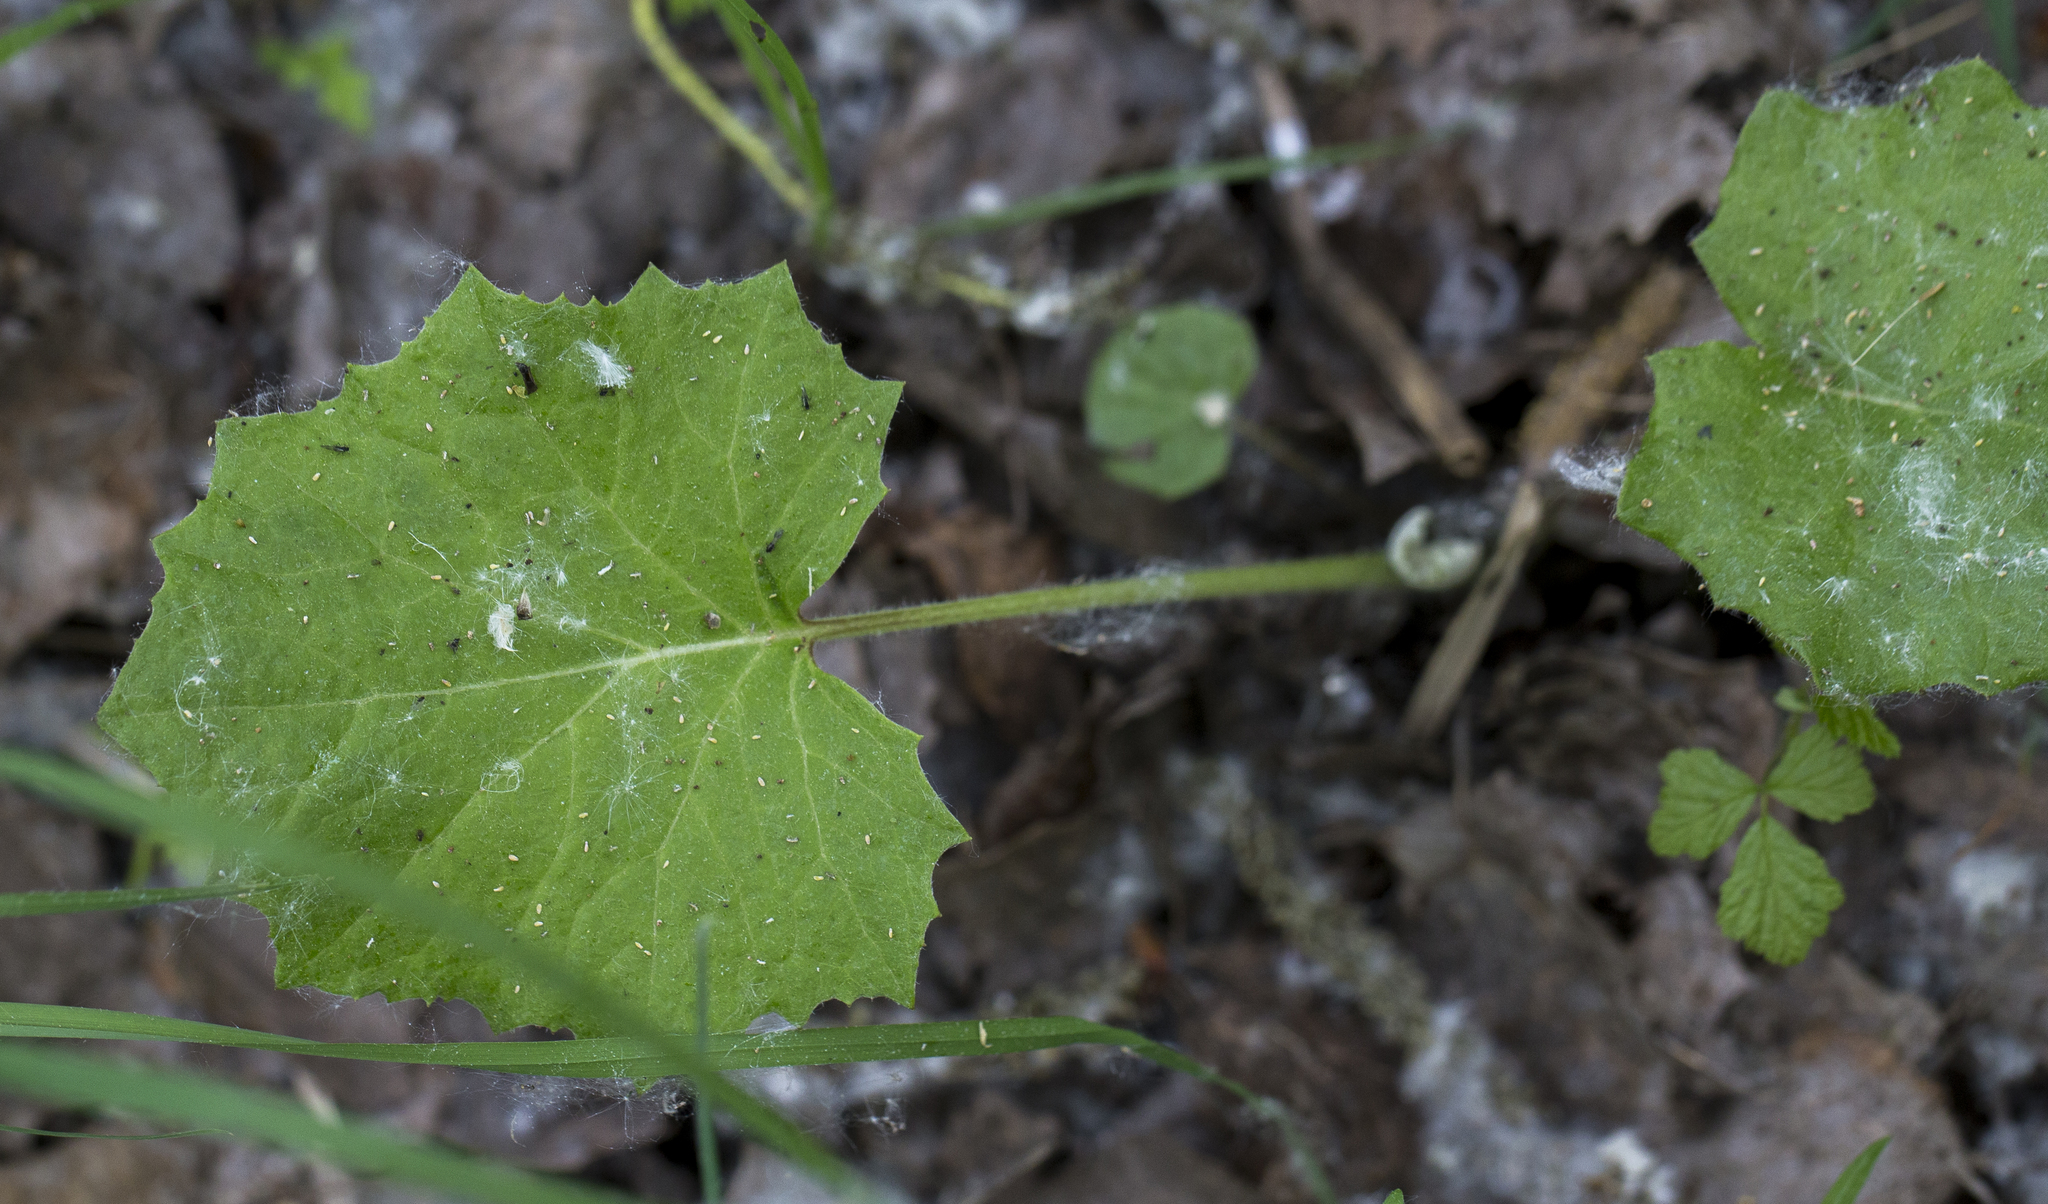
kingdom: Plantae
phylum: Tracheophyta
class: Magnoliopsida
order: Asterales
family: Asteraceae
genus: Tussilago
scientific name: Tussilago farfara
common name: Coltsfoot
